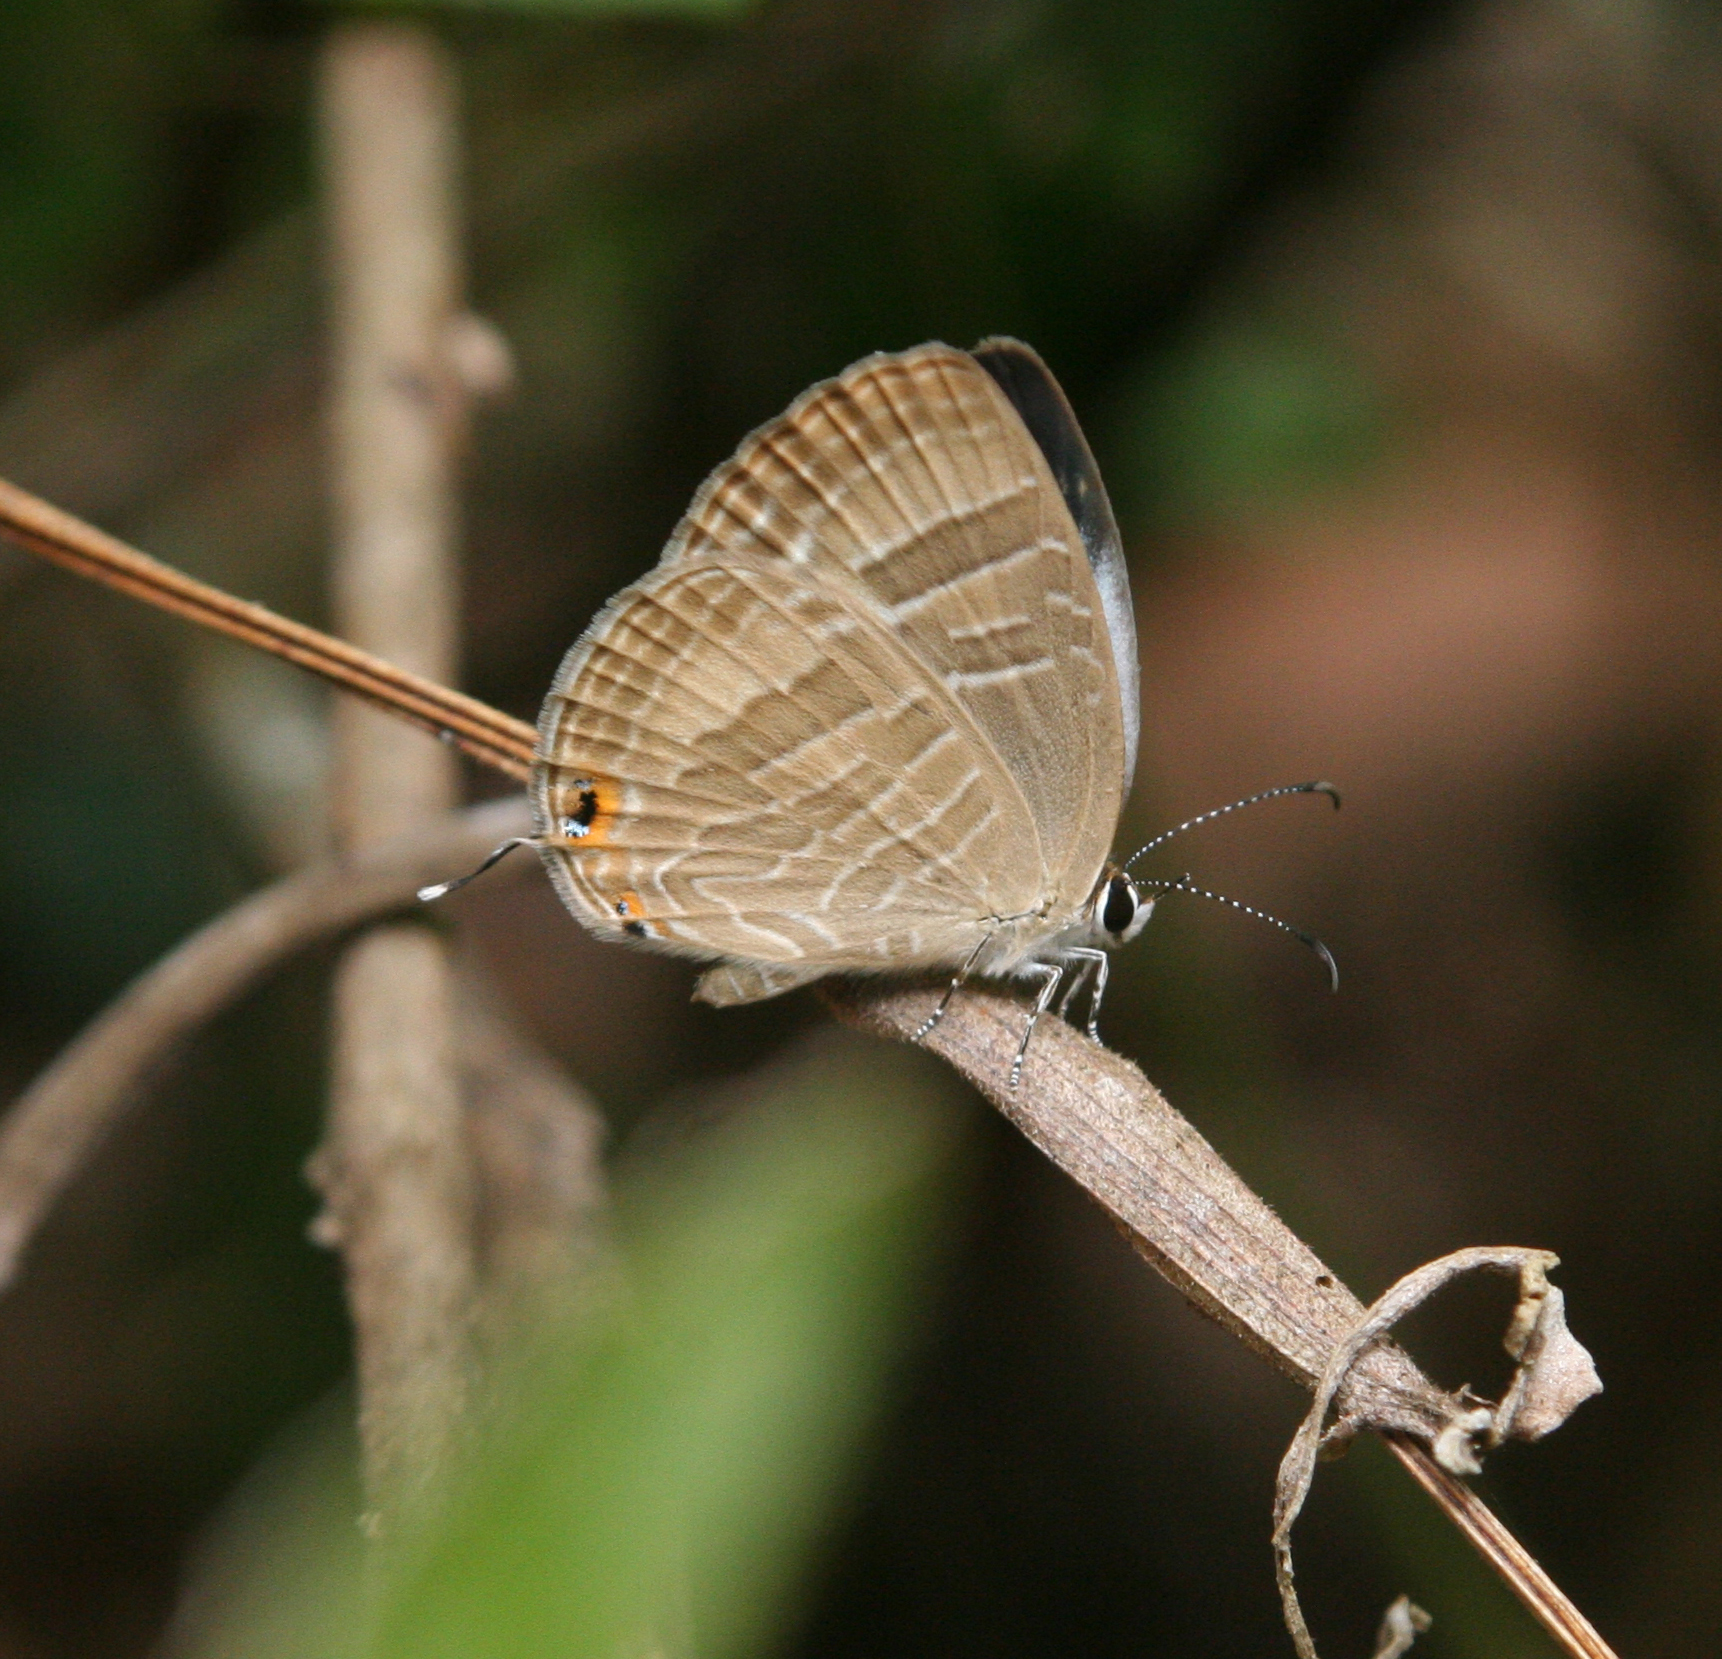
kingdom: Animalia
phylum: Arthropoda
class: Insecta
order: Lepidoptera
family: Lycaenidae
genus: Jamides
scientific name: Jamides celeno
